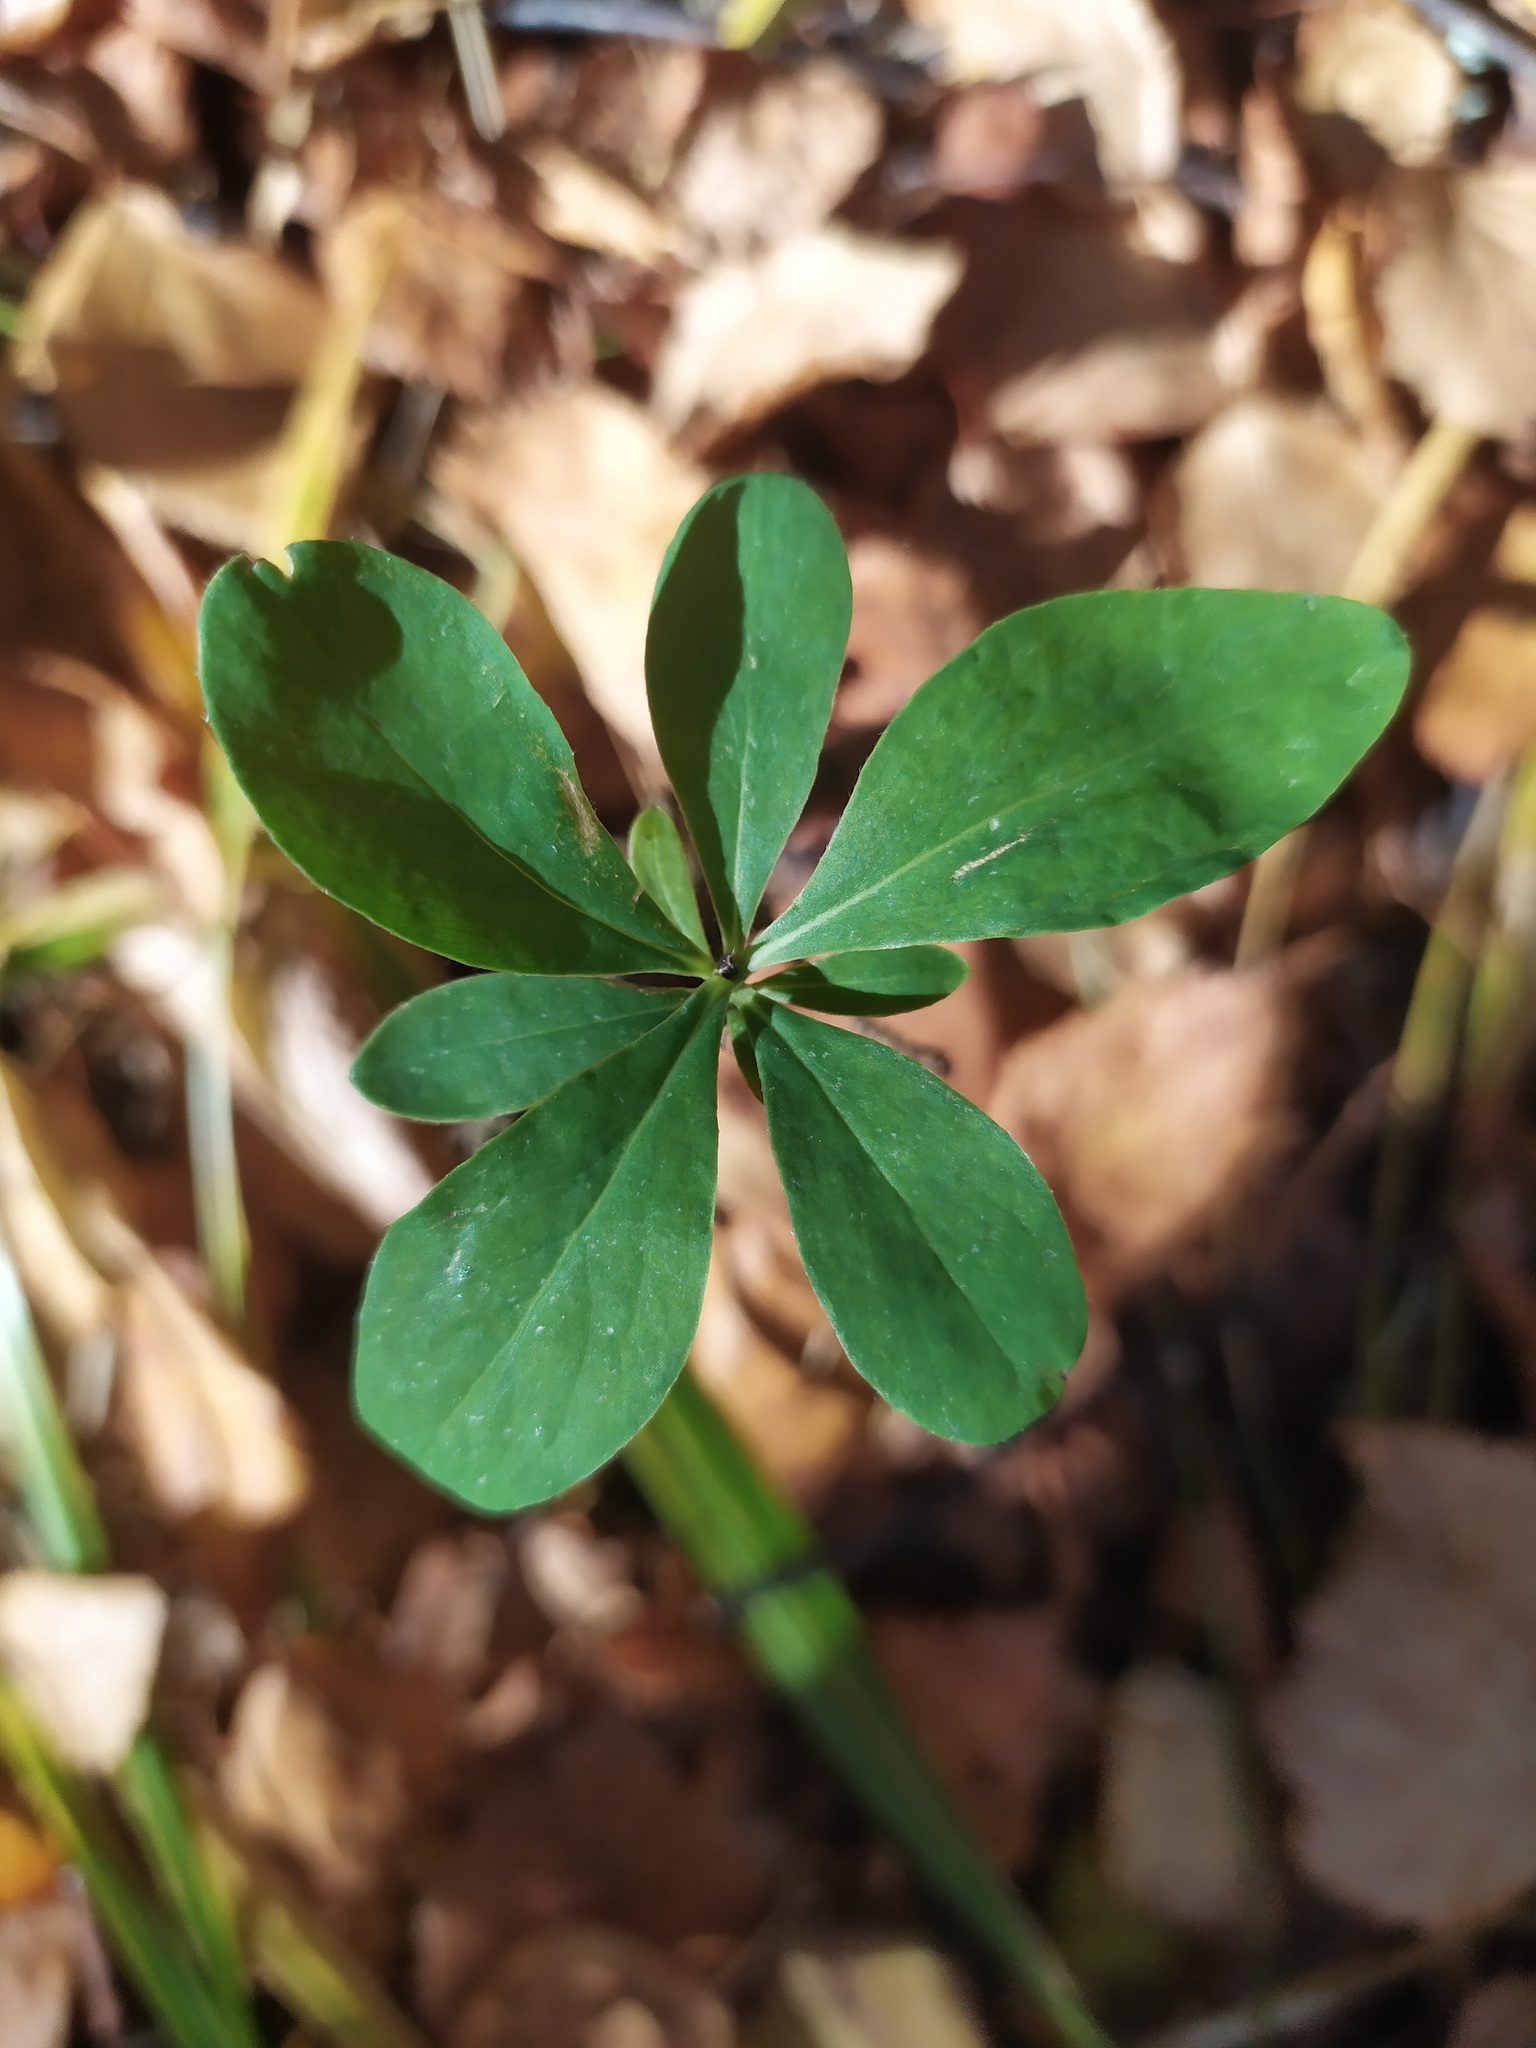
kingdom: Plantae
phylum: Tracheophyta
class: Magnoliopsida
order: Malvales
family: Thymelaeaceae
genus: Daphne
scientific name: Daphne mezereum
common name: Mezereon
